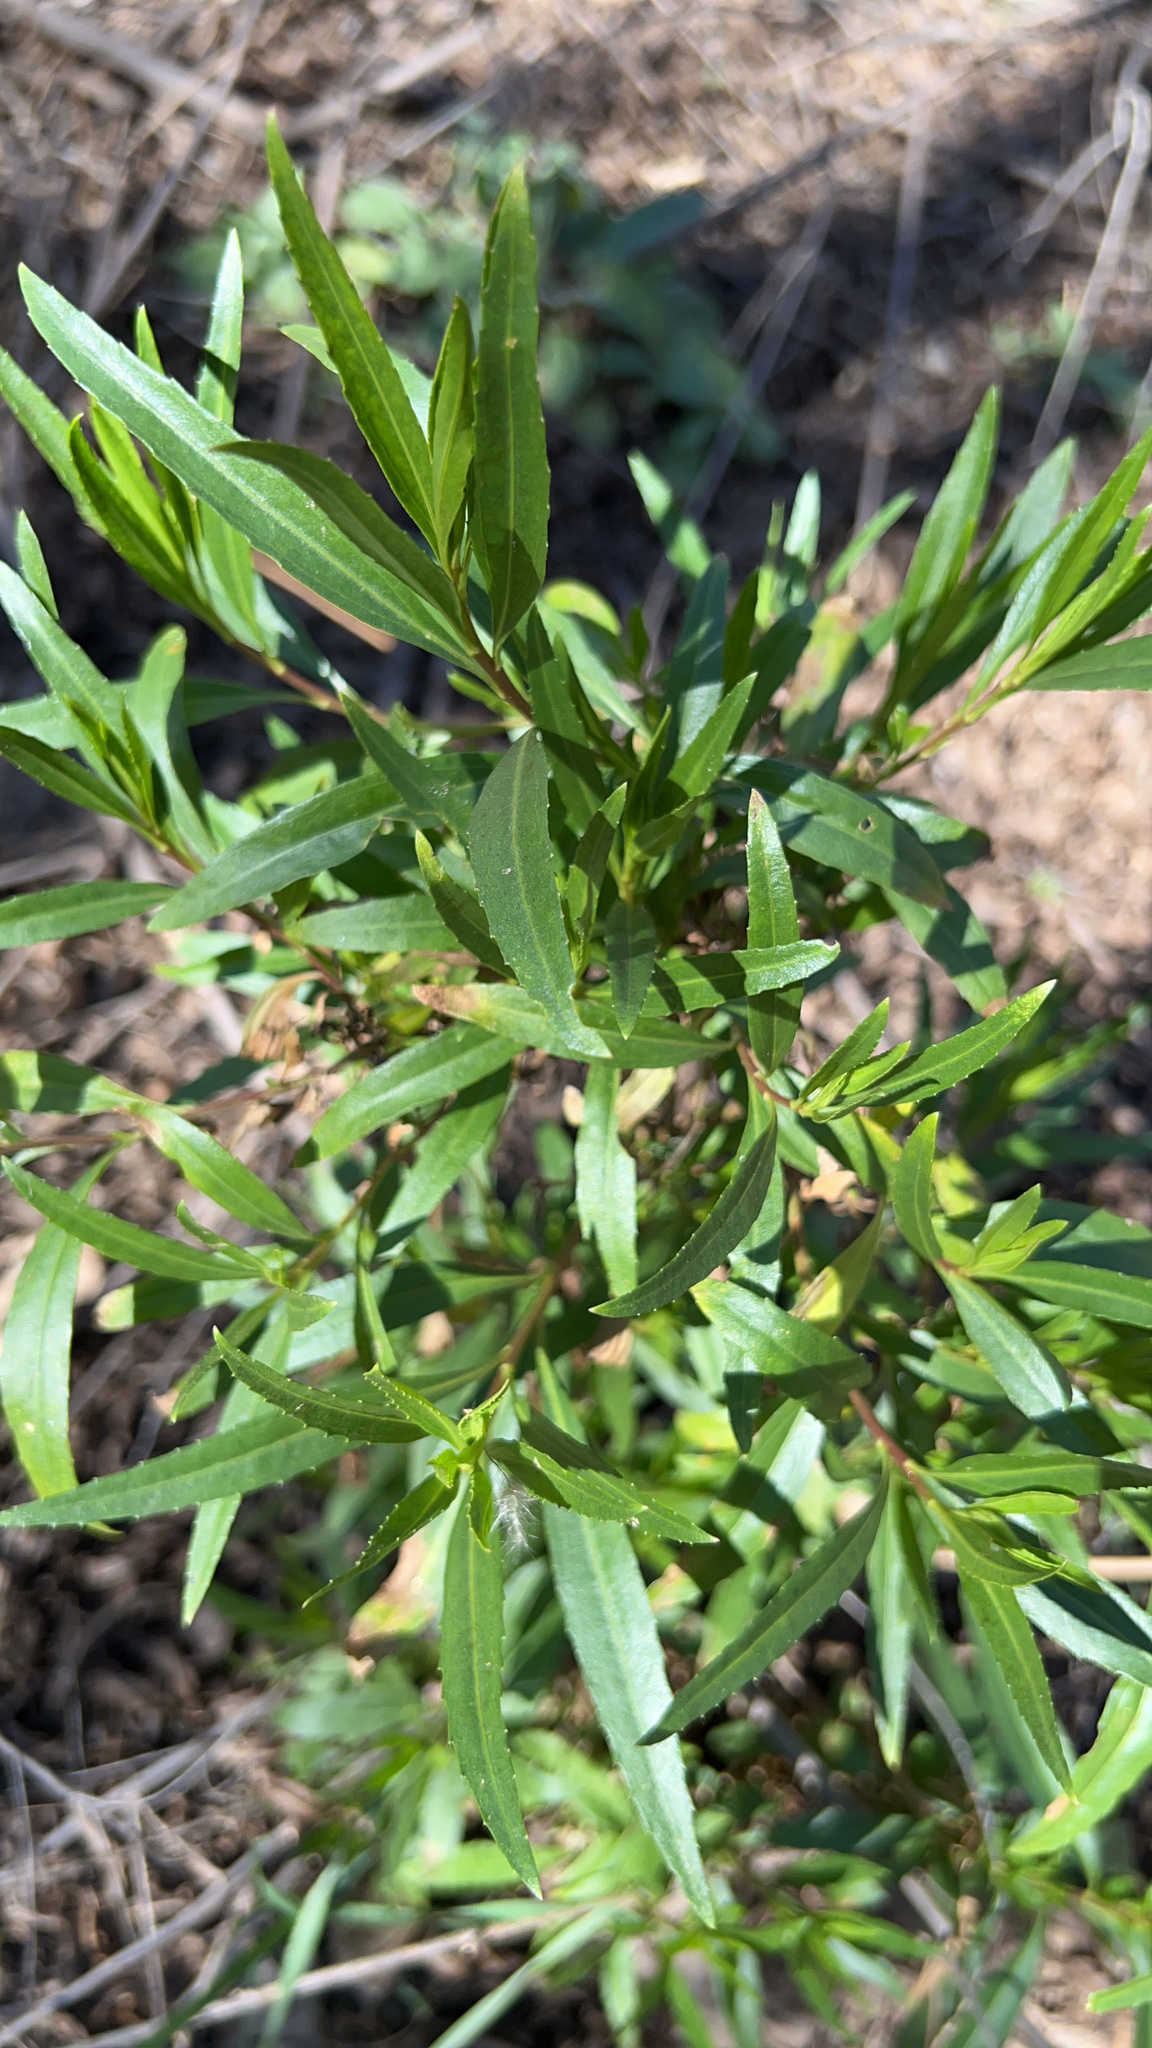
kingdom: Plantae
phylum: Tracheophyta
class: Magnoliopsida
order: Asterales
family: Asteraceae
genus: Baccharis
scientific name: Baccharis salicifolia
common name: Sticky baccharis
